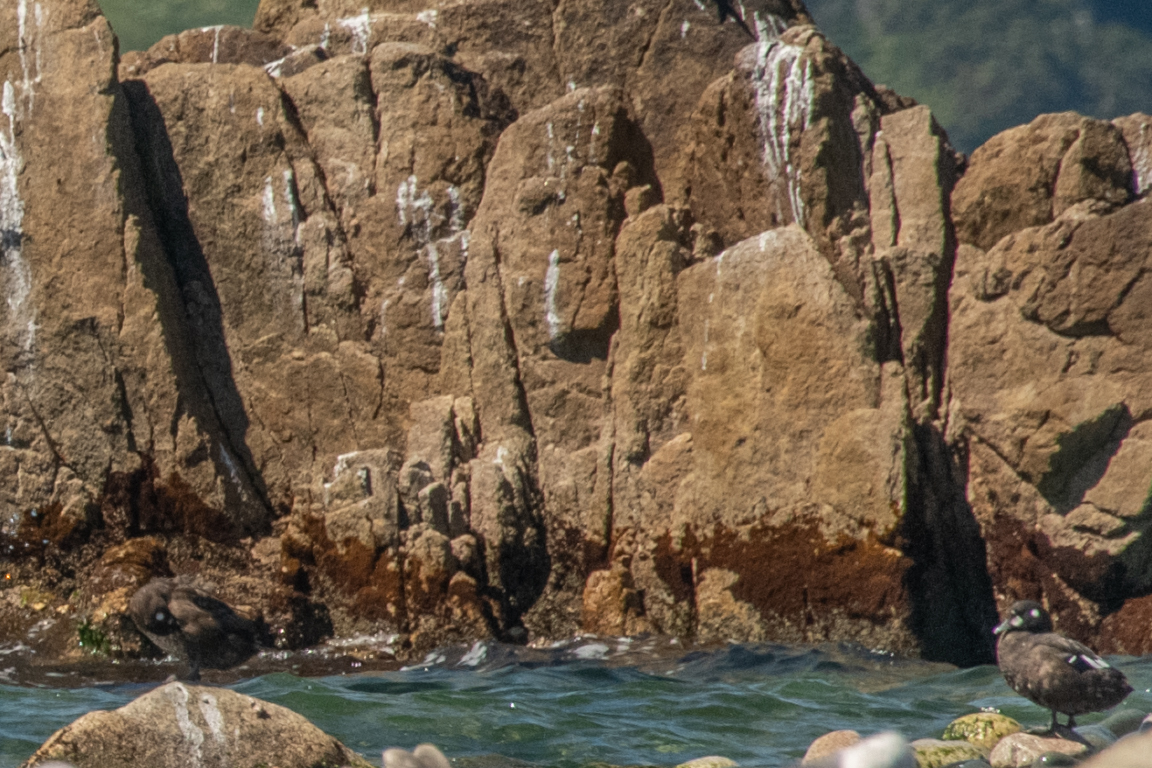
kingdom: Animalia
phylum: Chordata
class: Aves
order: Anseriformes
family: Anatidae
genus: Histrionicus
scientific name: Histrionicus histrionicus
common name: Harlequin duck
